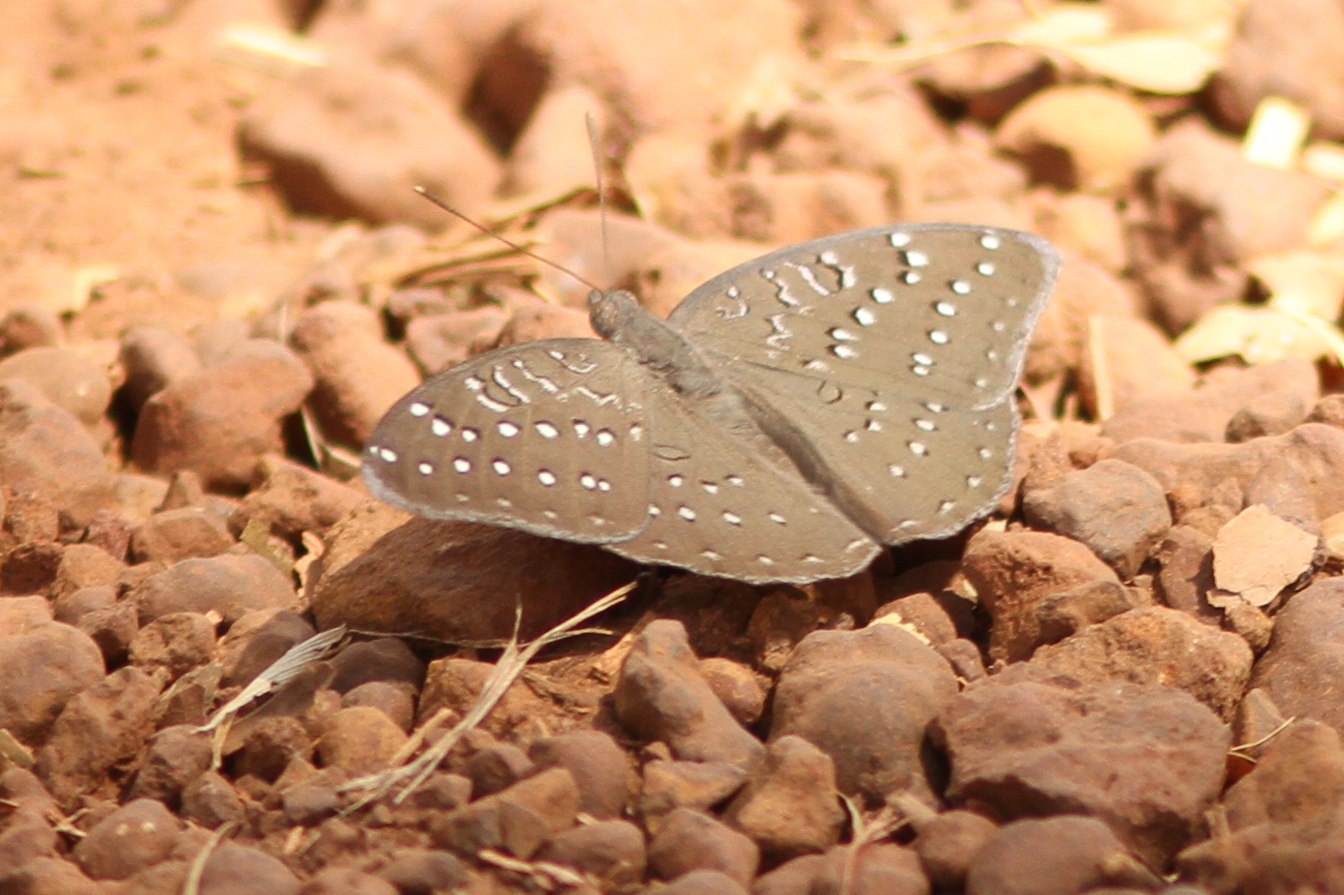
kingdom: Animalia
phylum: Arthropoda
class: Insecta
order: Lepidoptera
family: Nymphalidae
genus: Hamanumida
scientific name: Hamanumida daedalus
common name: Guinea-fowl butterfly
